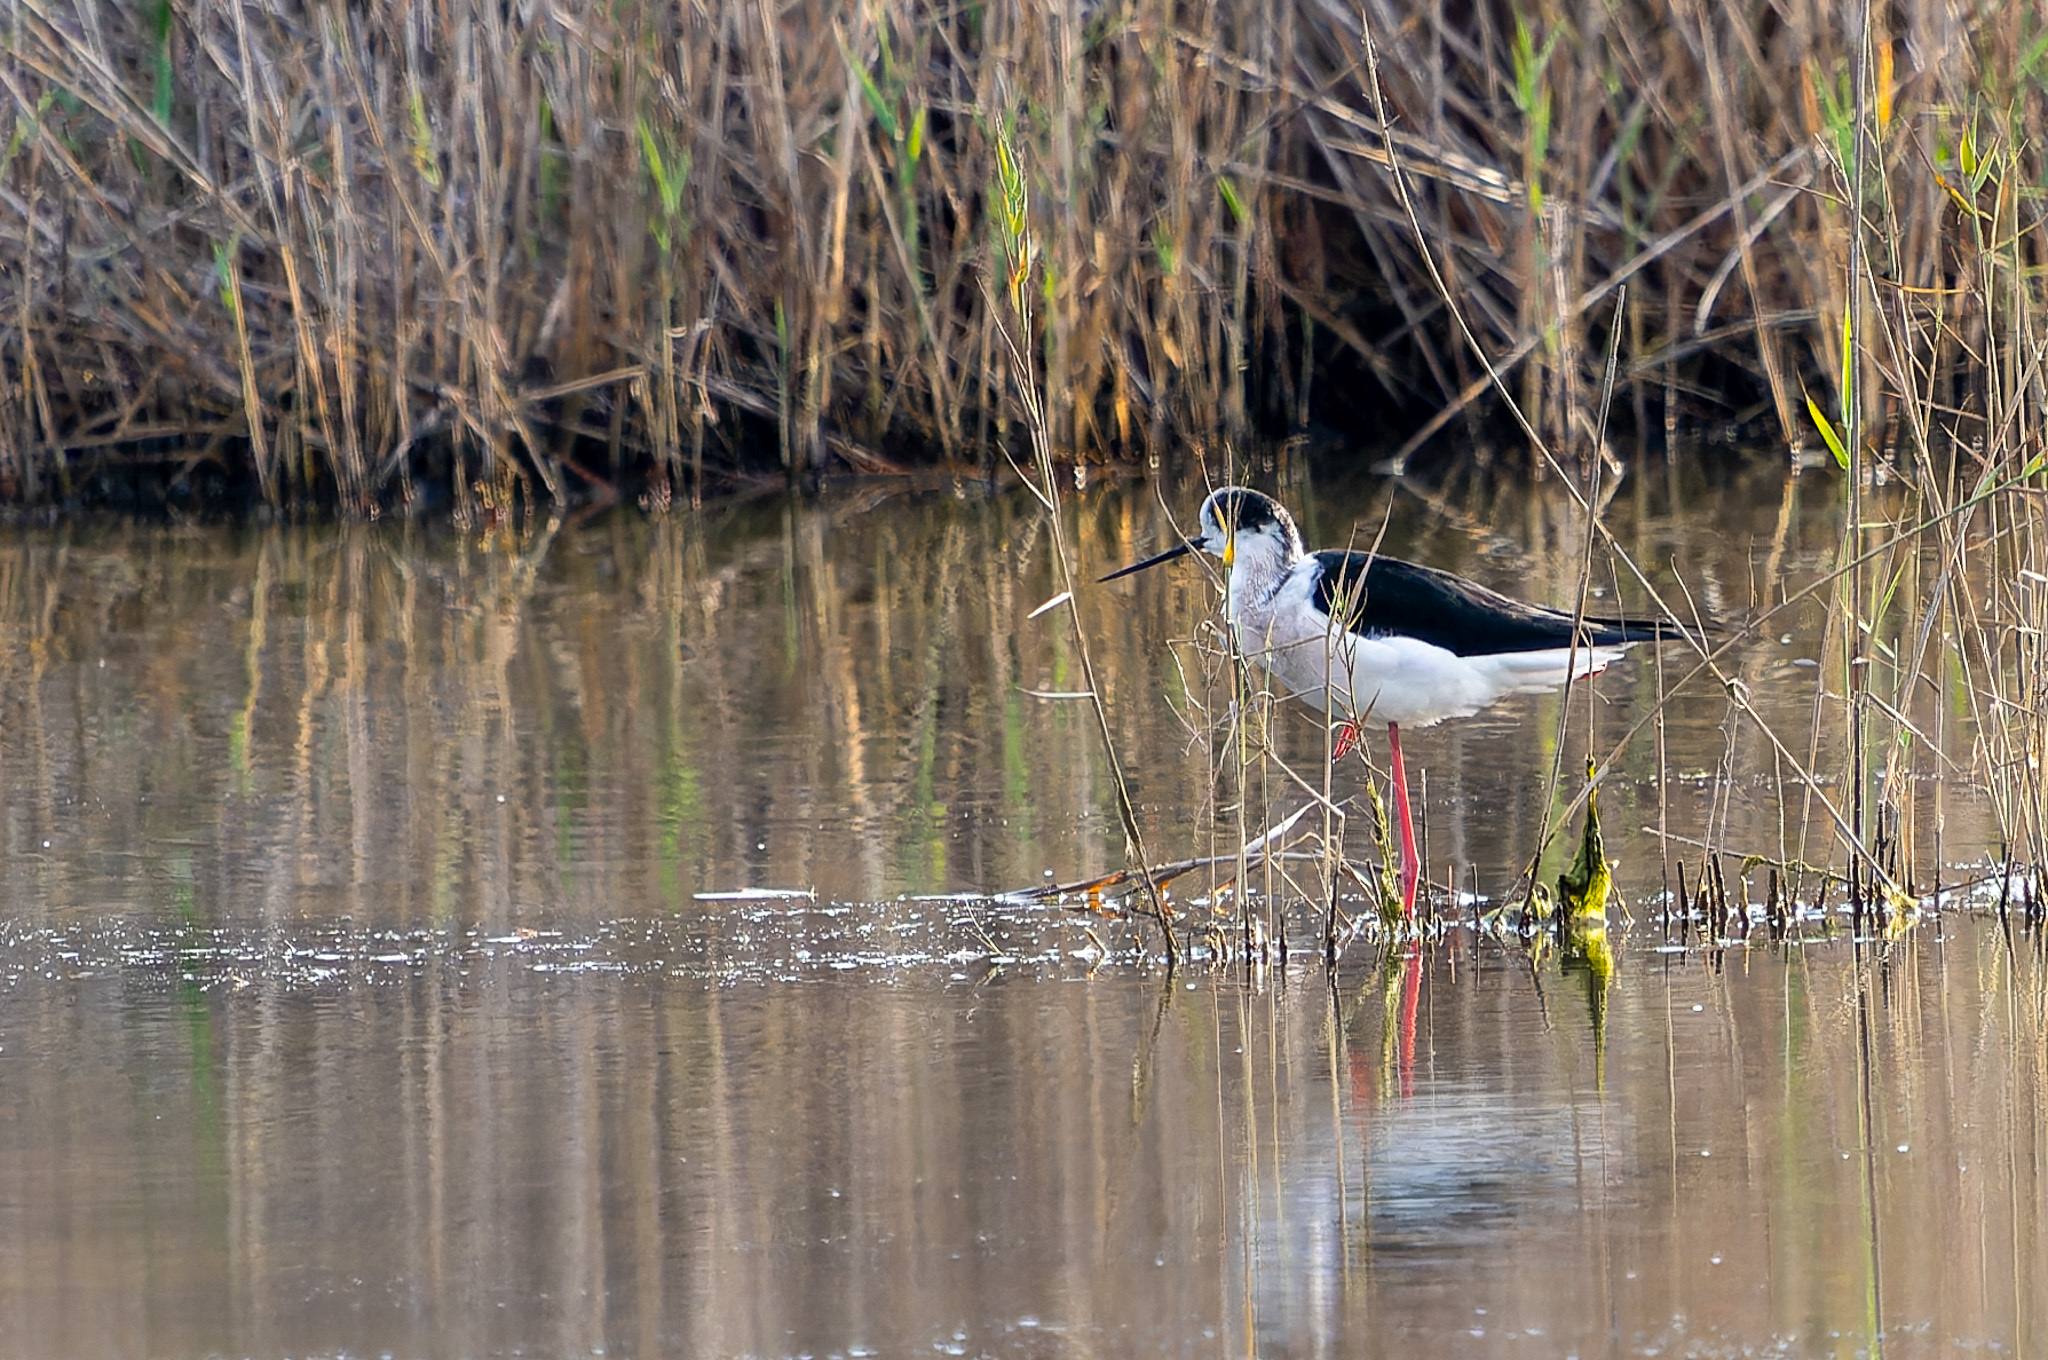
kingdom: Animalia
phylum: Chordata
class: Aves
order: Charadriiformes
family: Recurvirostridae
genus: Himantopus
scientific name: Himantopus himantopus
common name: Black-winged stilt
